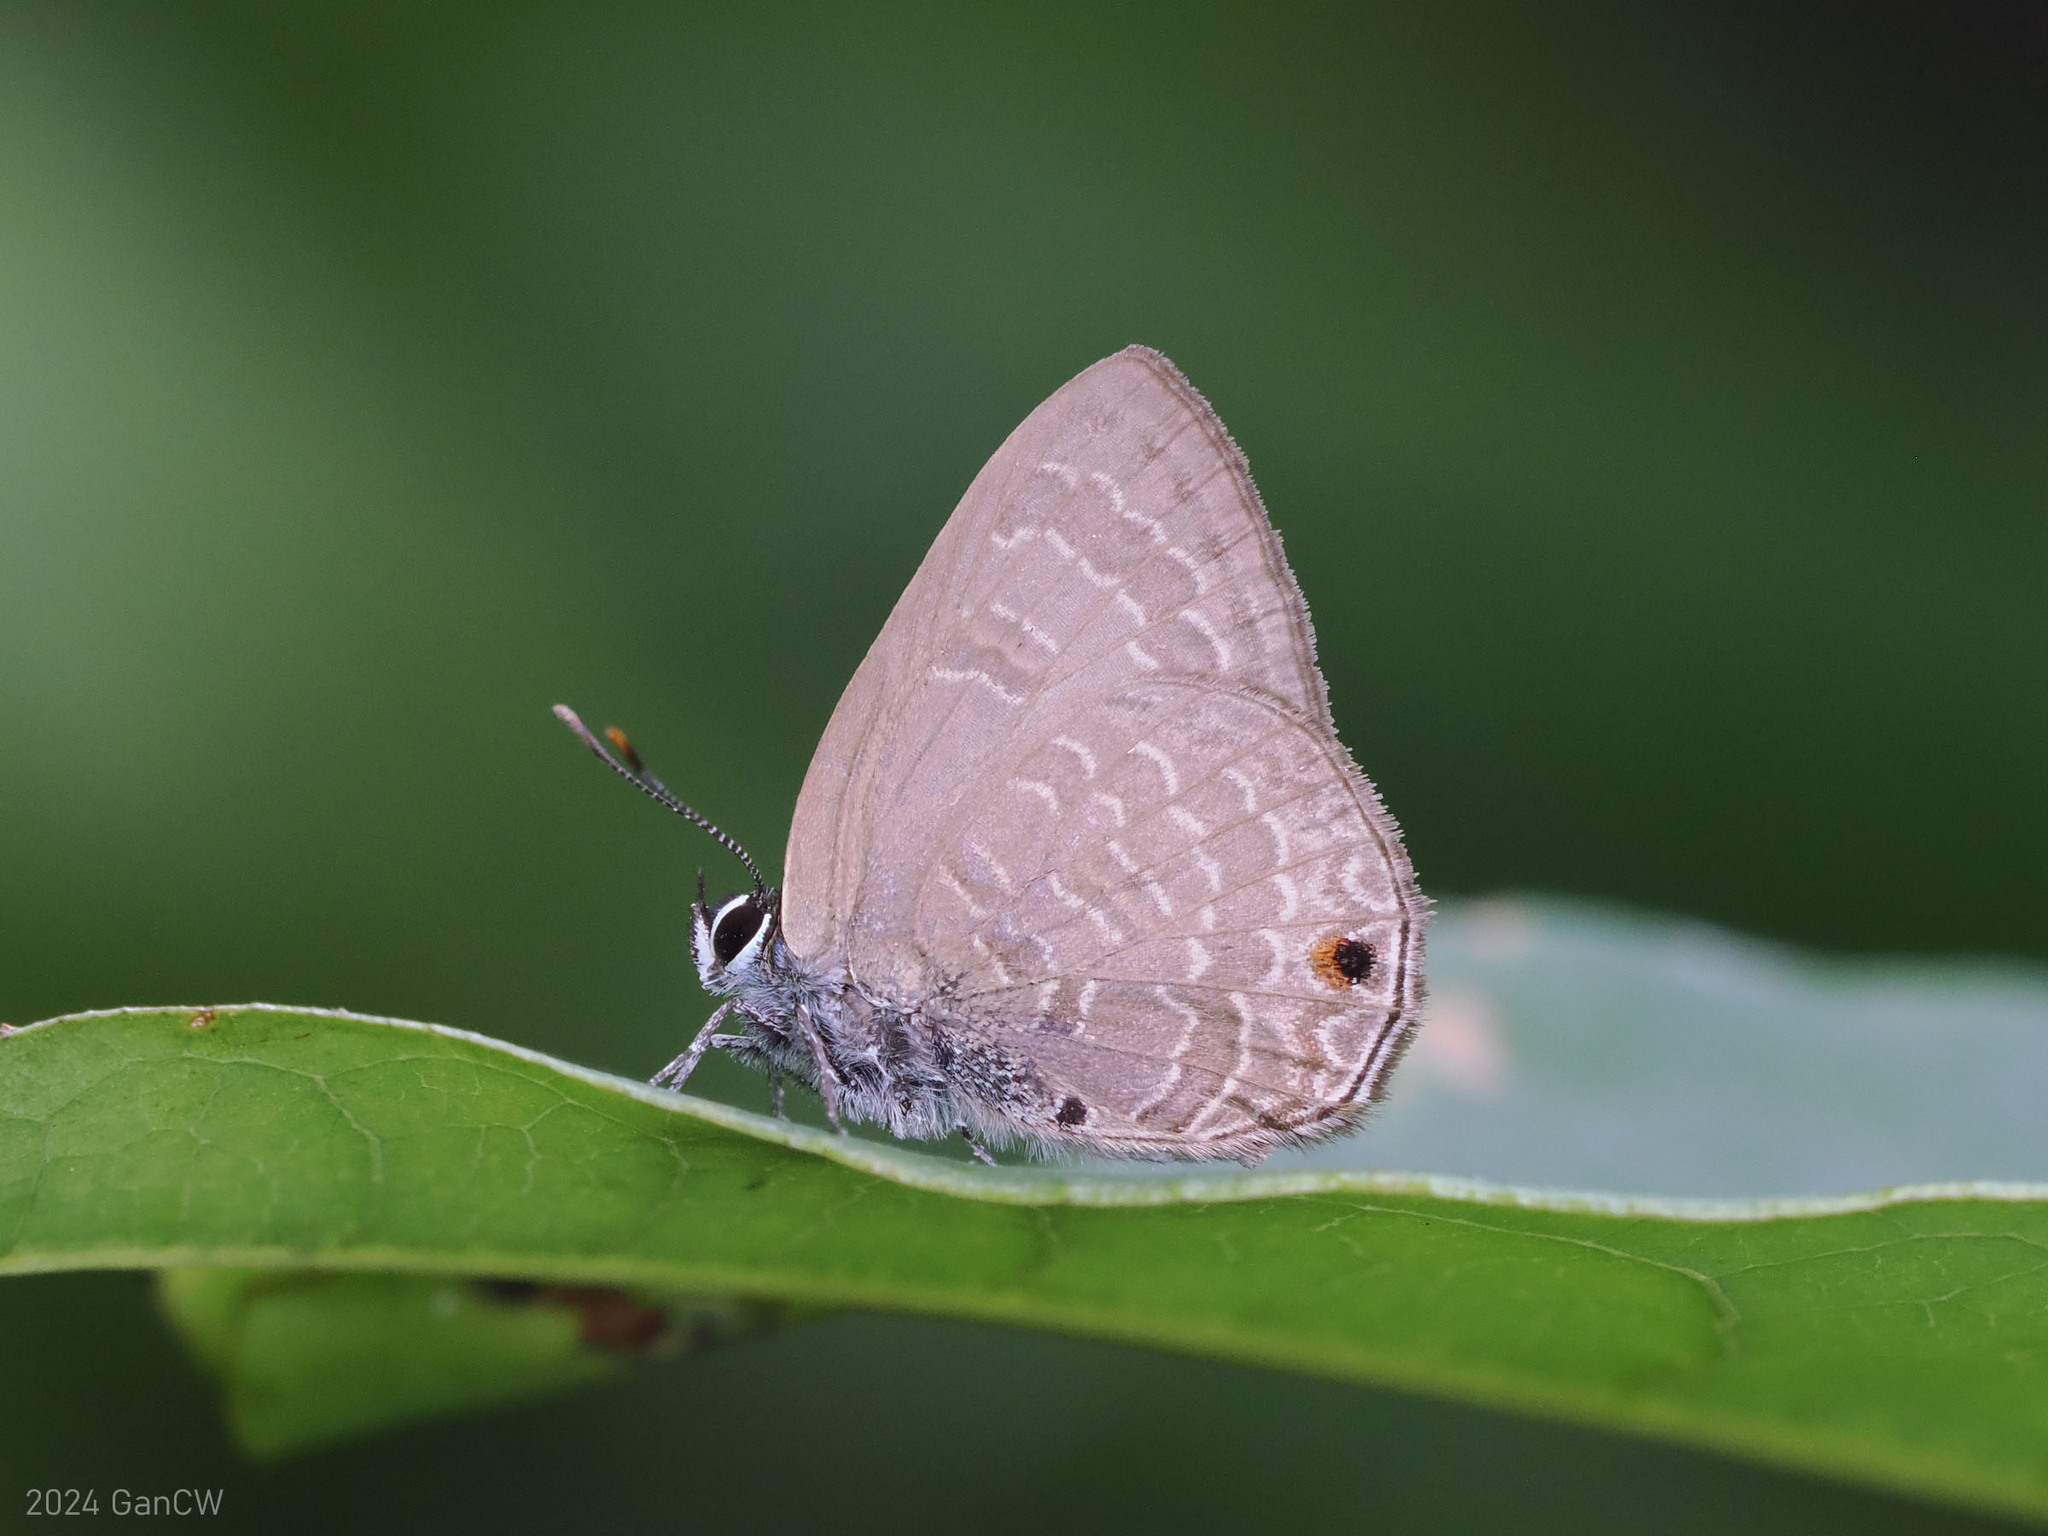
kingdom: Animalia
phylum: Arthropoda
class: Insecta
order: Lepidoptera
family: Lycaenidae
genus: Anthene
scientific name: Anthene emolus
